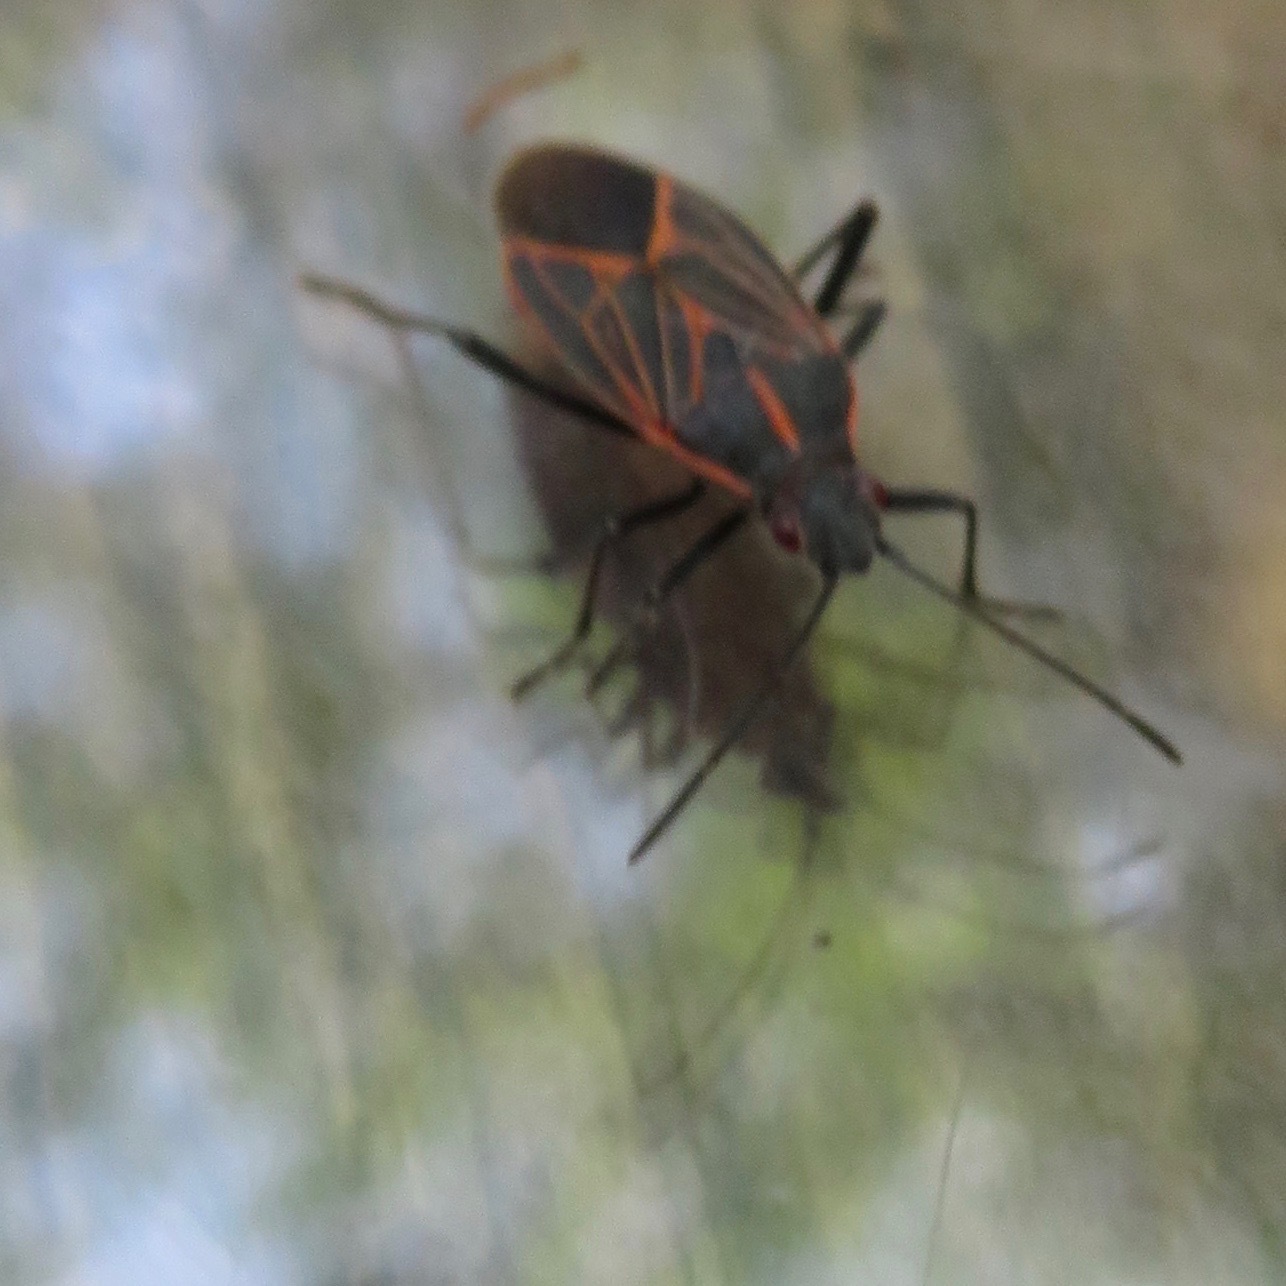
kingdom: Animalia
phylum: Arthropoda
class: Insecta
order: Hemiptera
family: Rhopalidae
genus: Boisea
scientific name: Boisea rubrolineata
